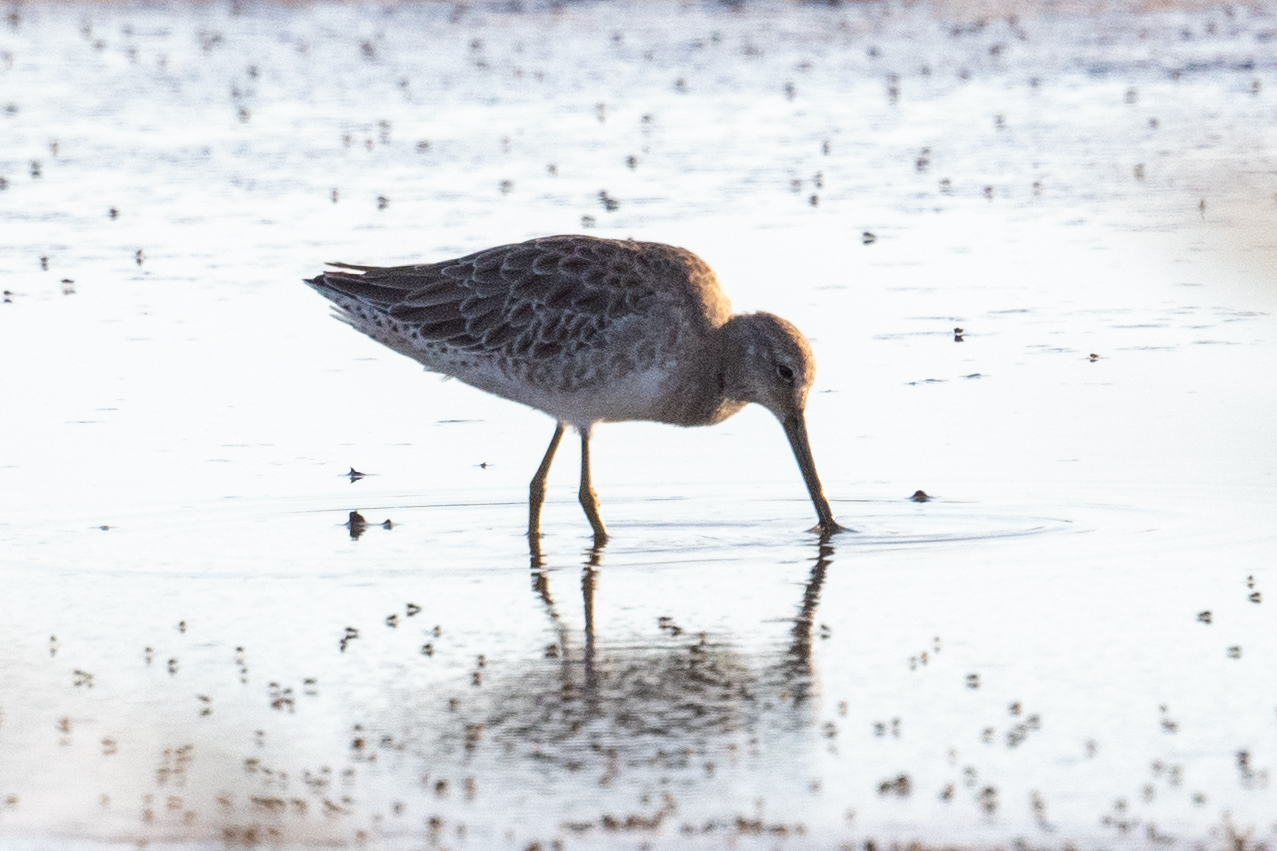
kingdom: Animalia
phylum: Chordata
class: Aves
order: Charadriiformes
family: Scolopacidae
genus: Limnodromus
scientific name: Limnodromus scolopaceus
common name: Long-billed dowitcher
